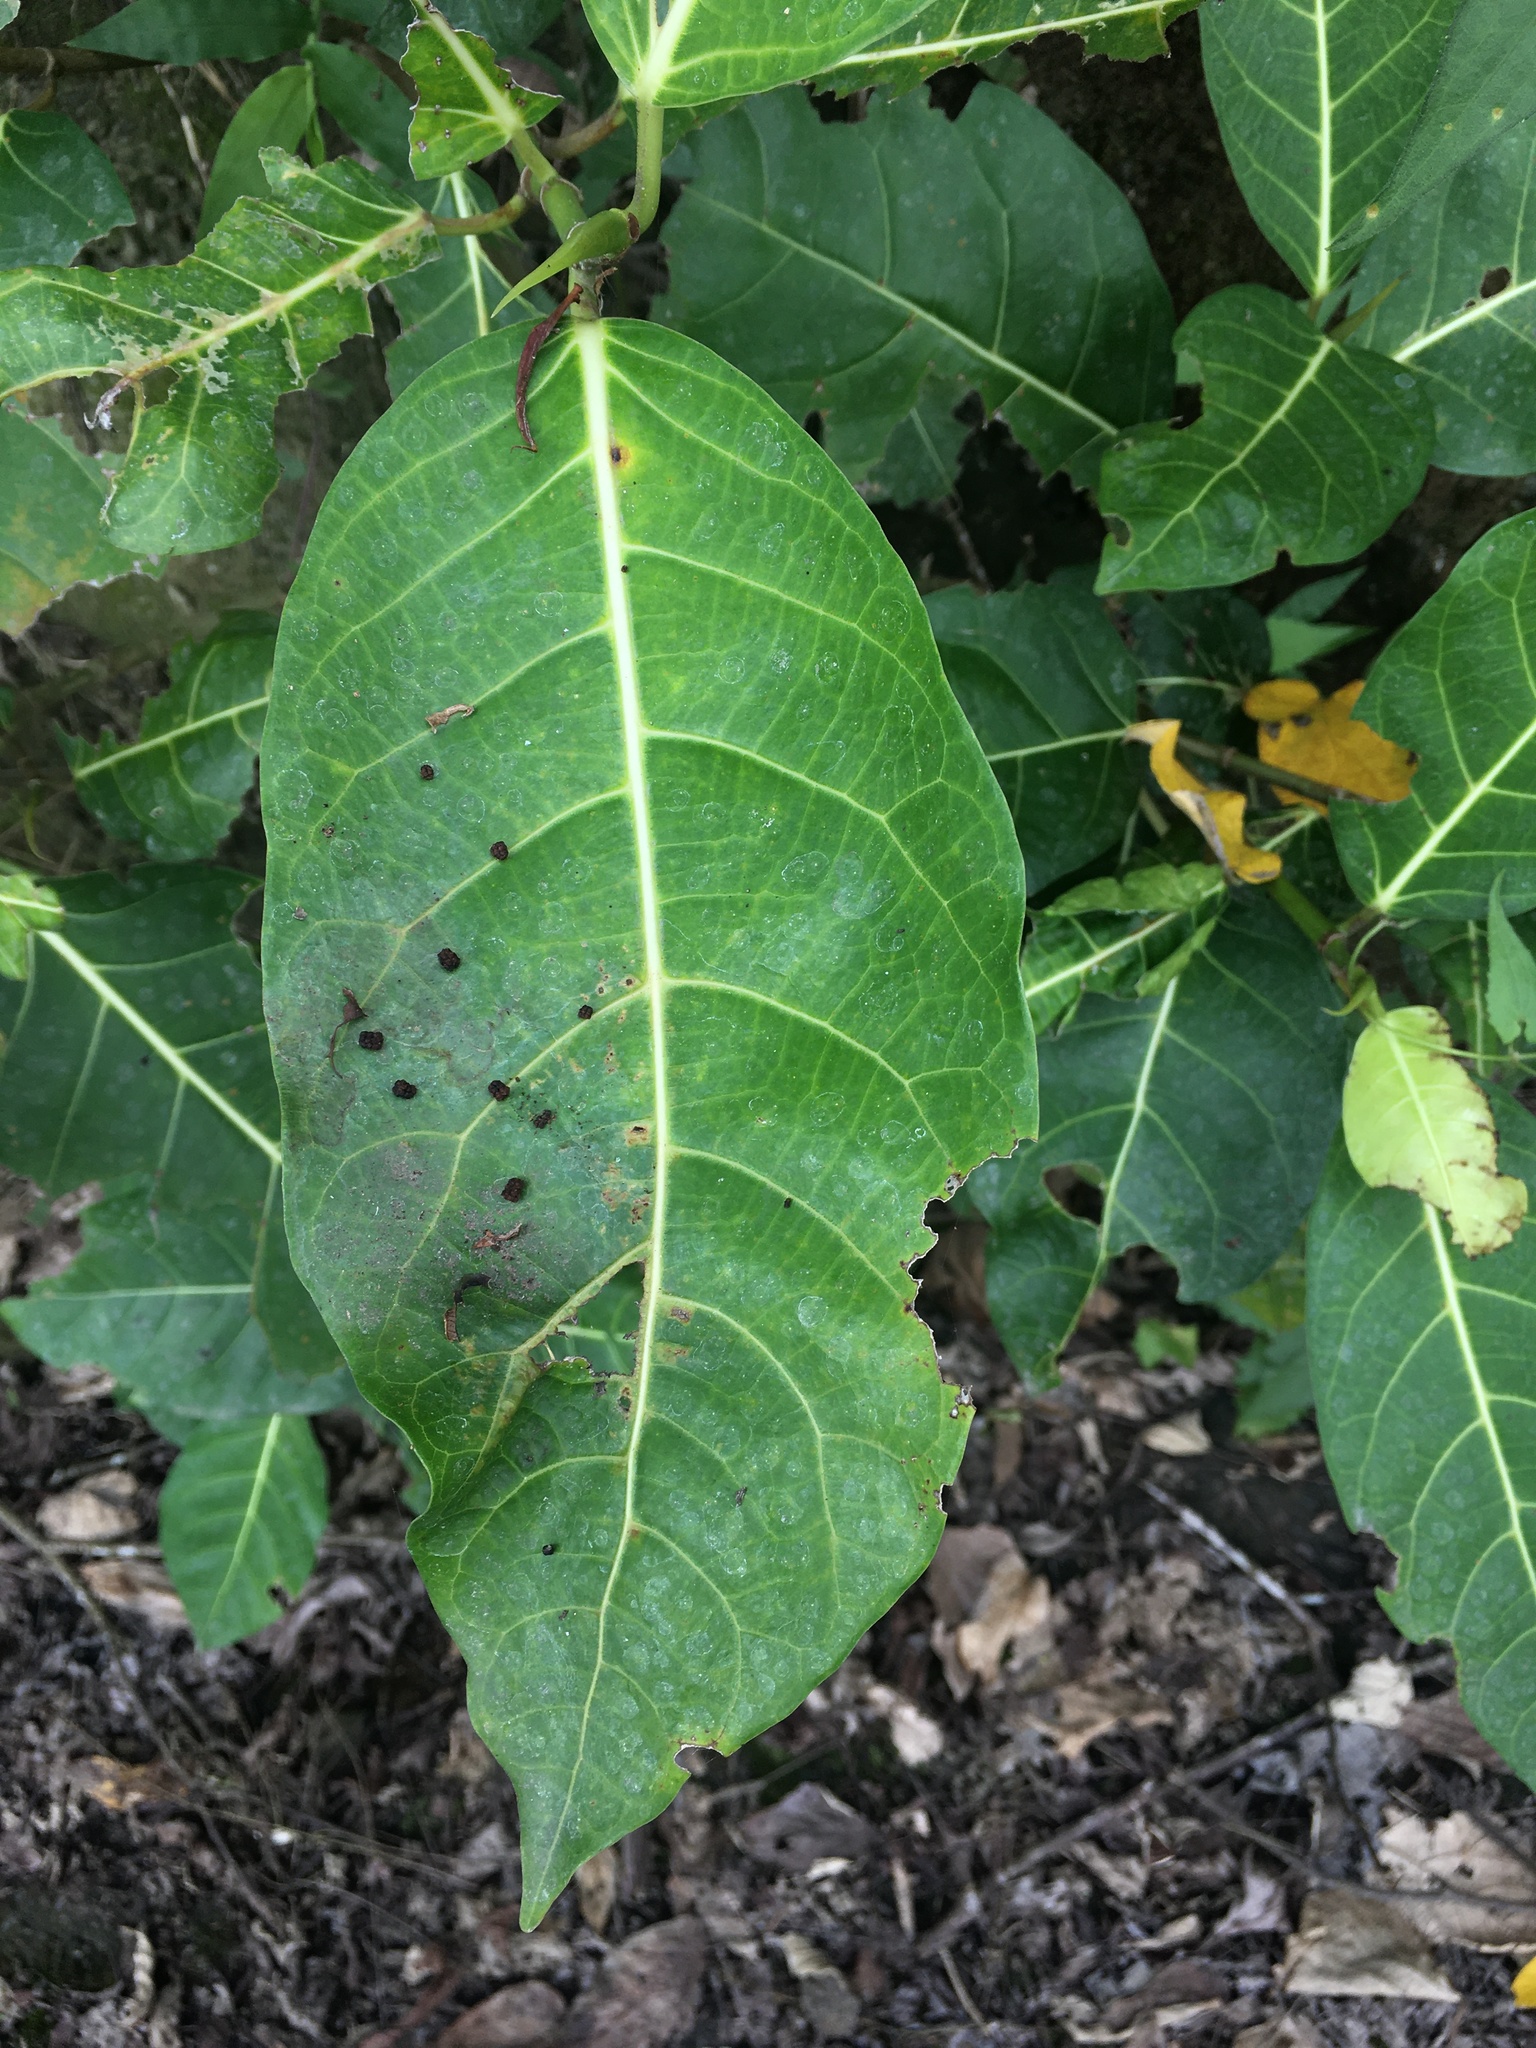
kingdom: Plantae
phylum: Tracheophyta
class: Magnoliopsida
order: Rosales
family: Moraceae
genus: Ficus
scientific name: Ficus septica
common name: Septic fig
